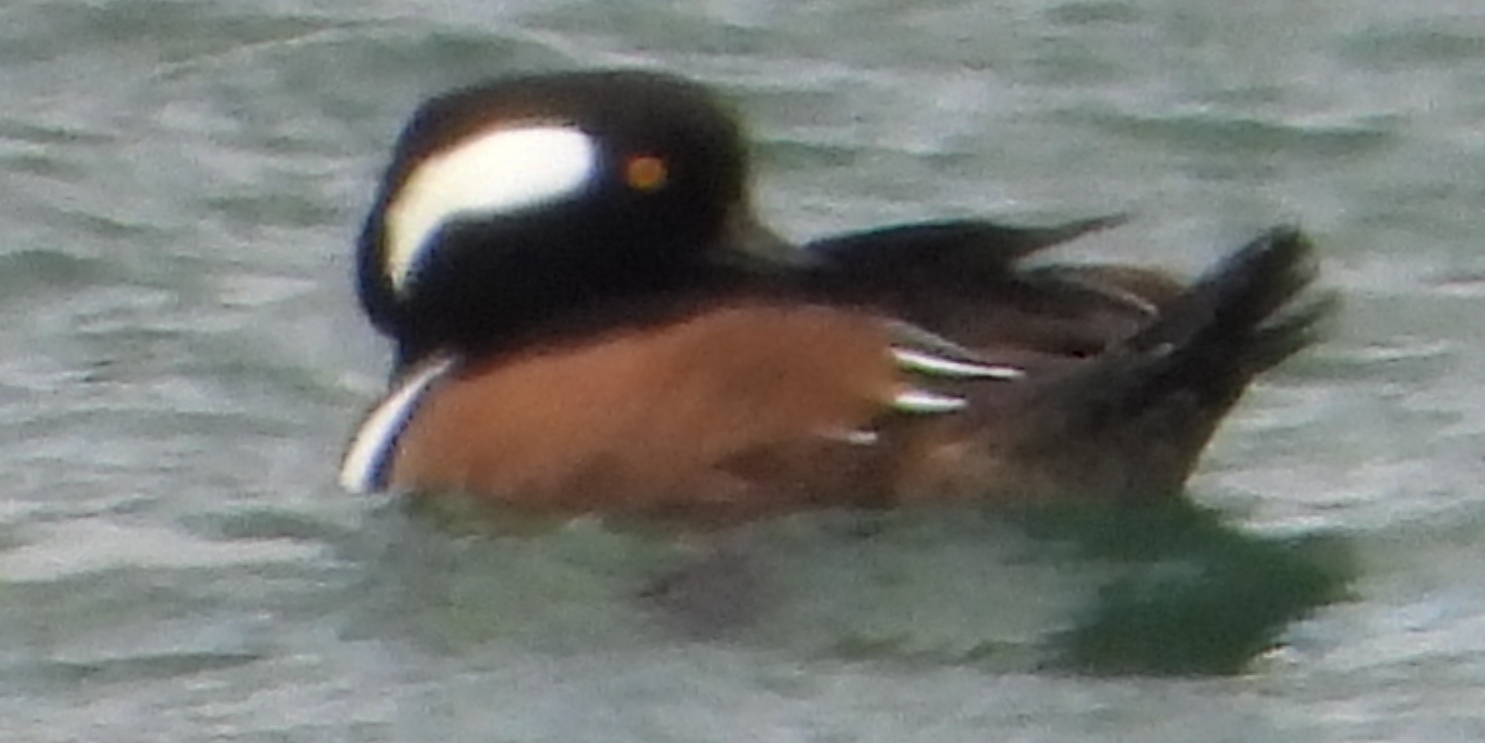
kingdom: Animalia
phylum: Chordata
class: Aves
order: Anseriformes
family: Anatidae
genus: Lophodytes
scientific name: Lophodytes cucullatus
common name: Hooded merganser
